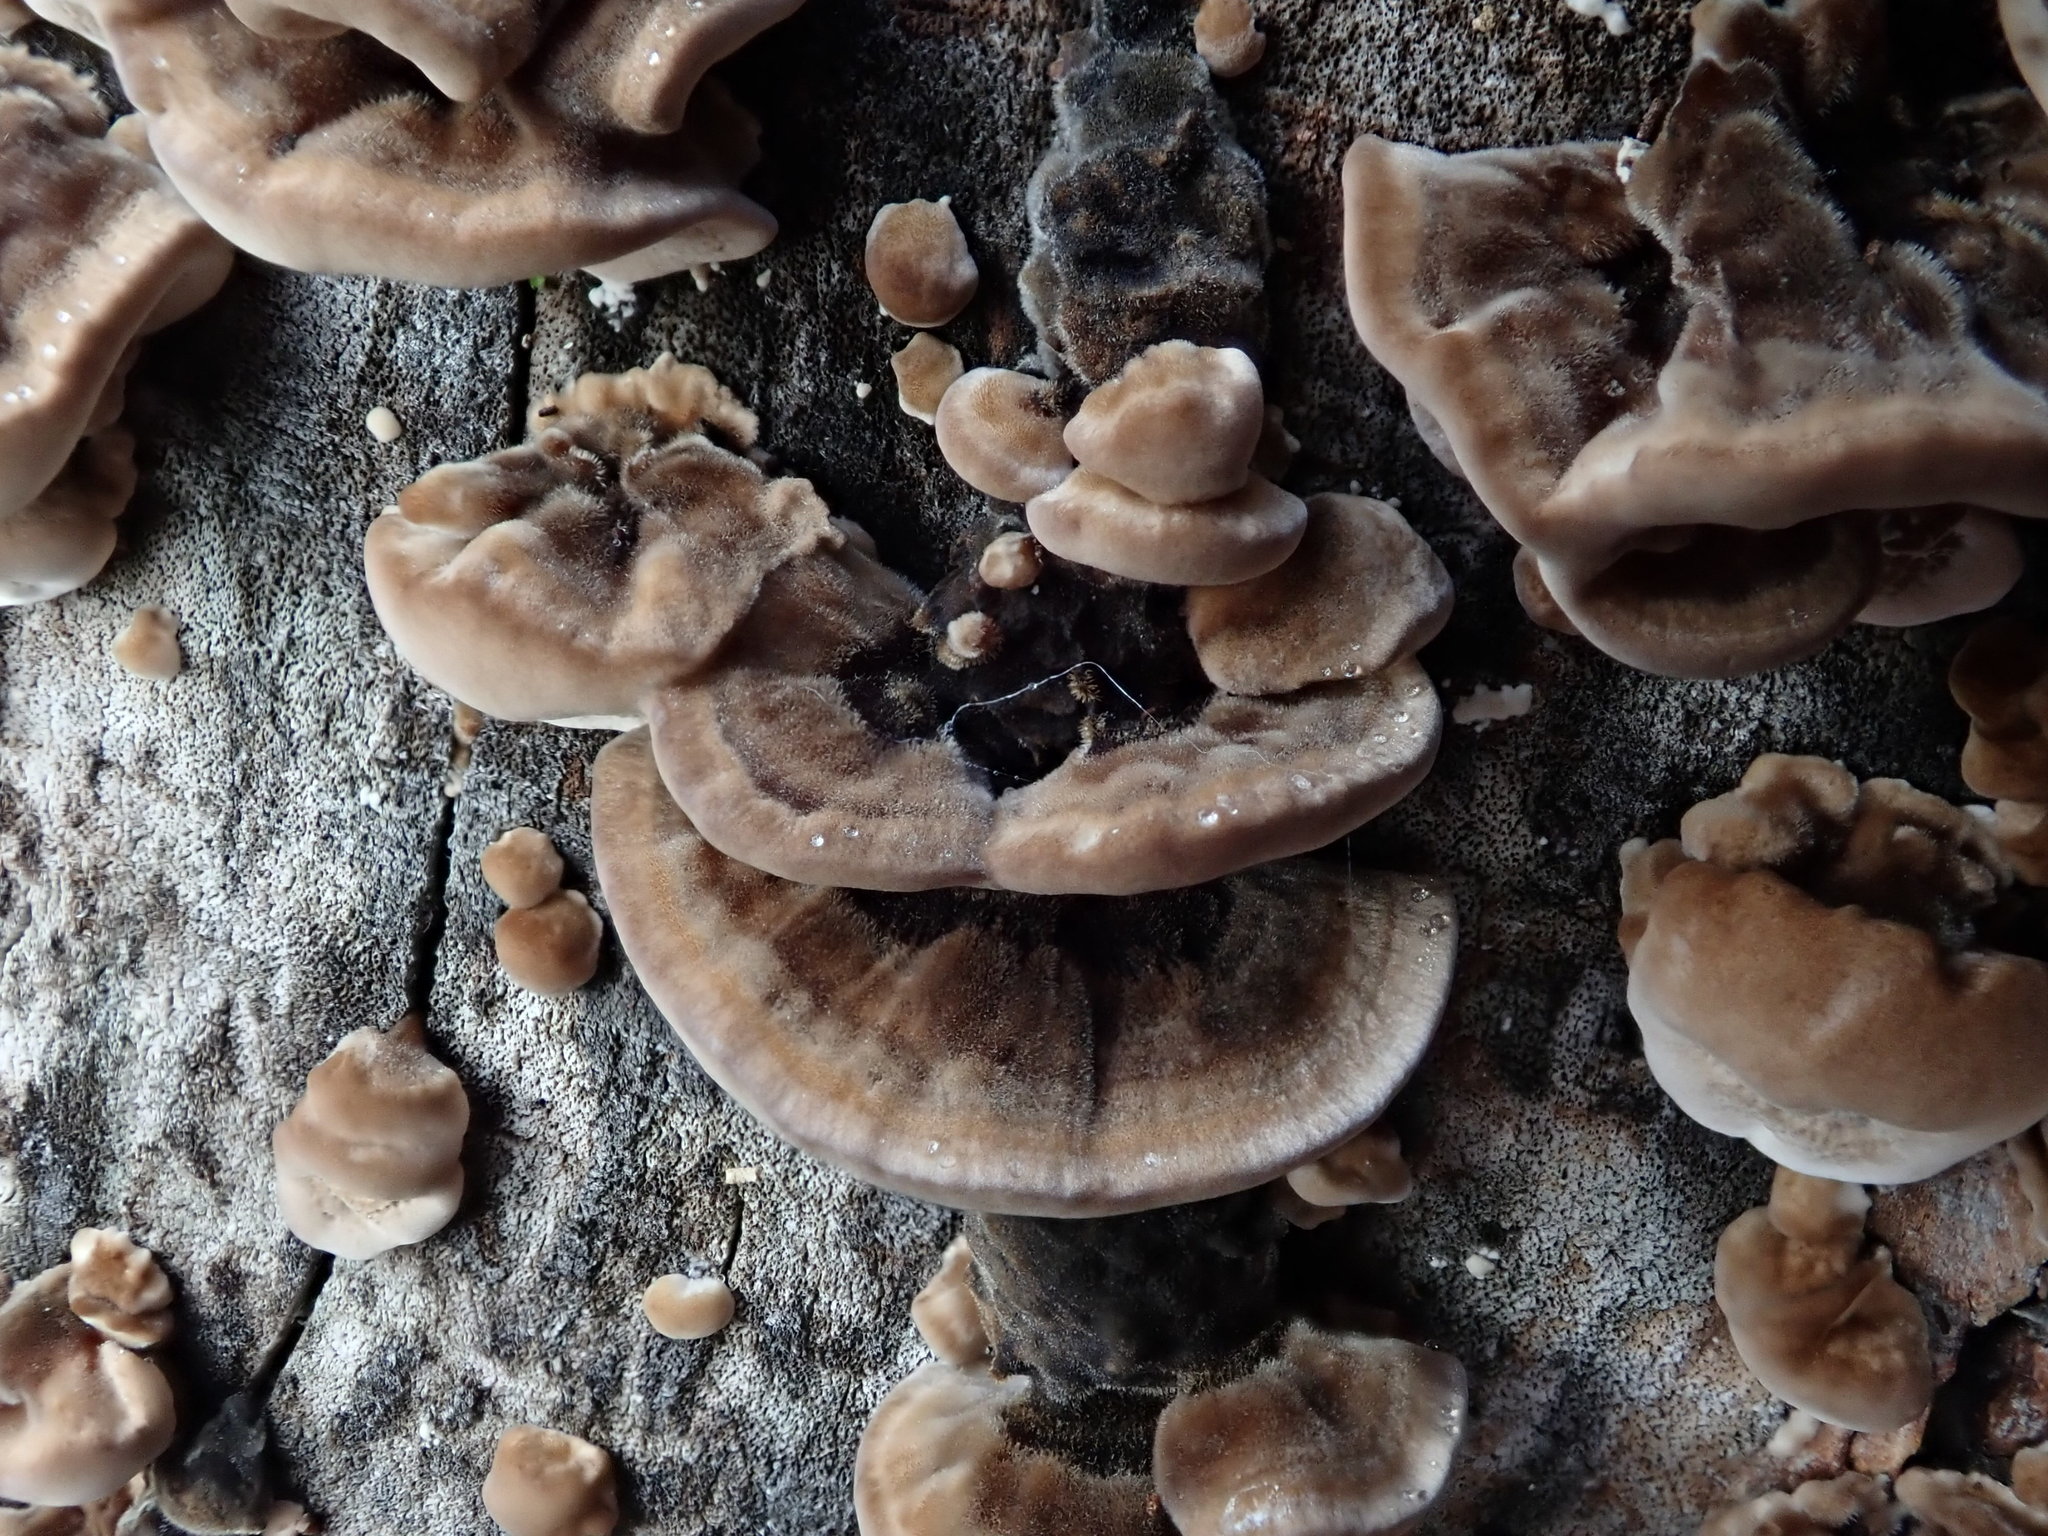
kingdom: Fungi
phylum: Basidiomycota
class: Agaricomycetes
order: Polyporales
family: Phanerochaetaceae
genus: Bjerkandera
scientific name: Bjerkandera adusta
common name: Smoky bracket
